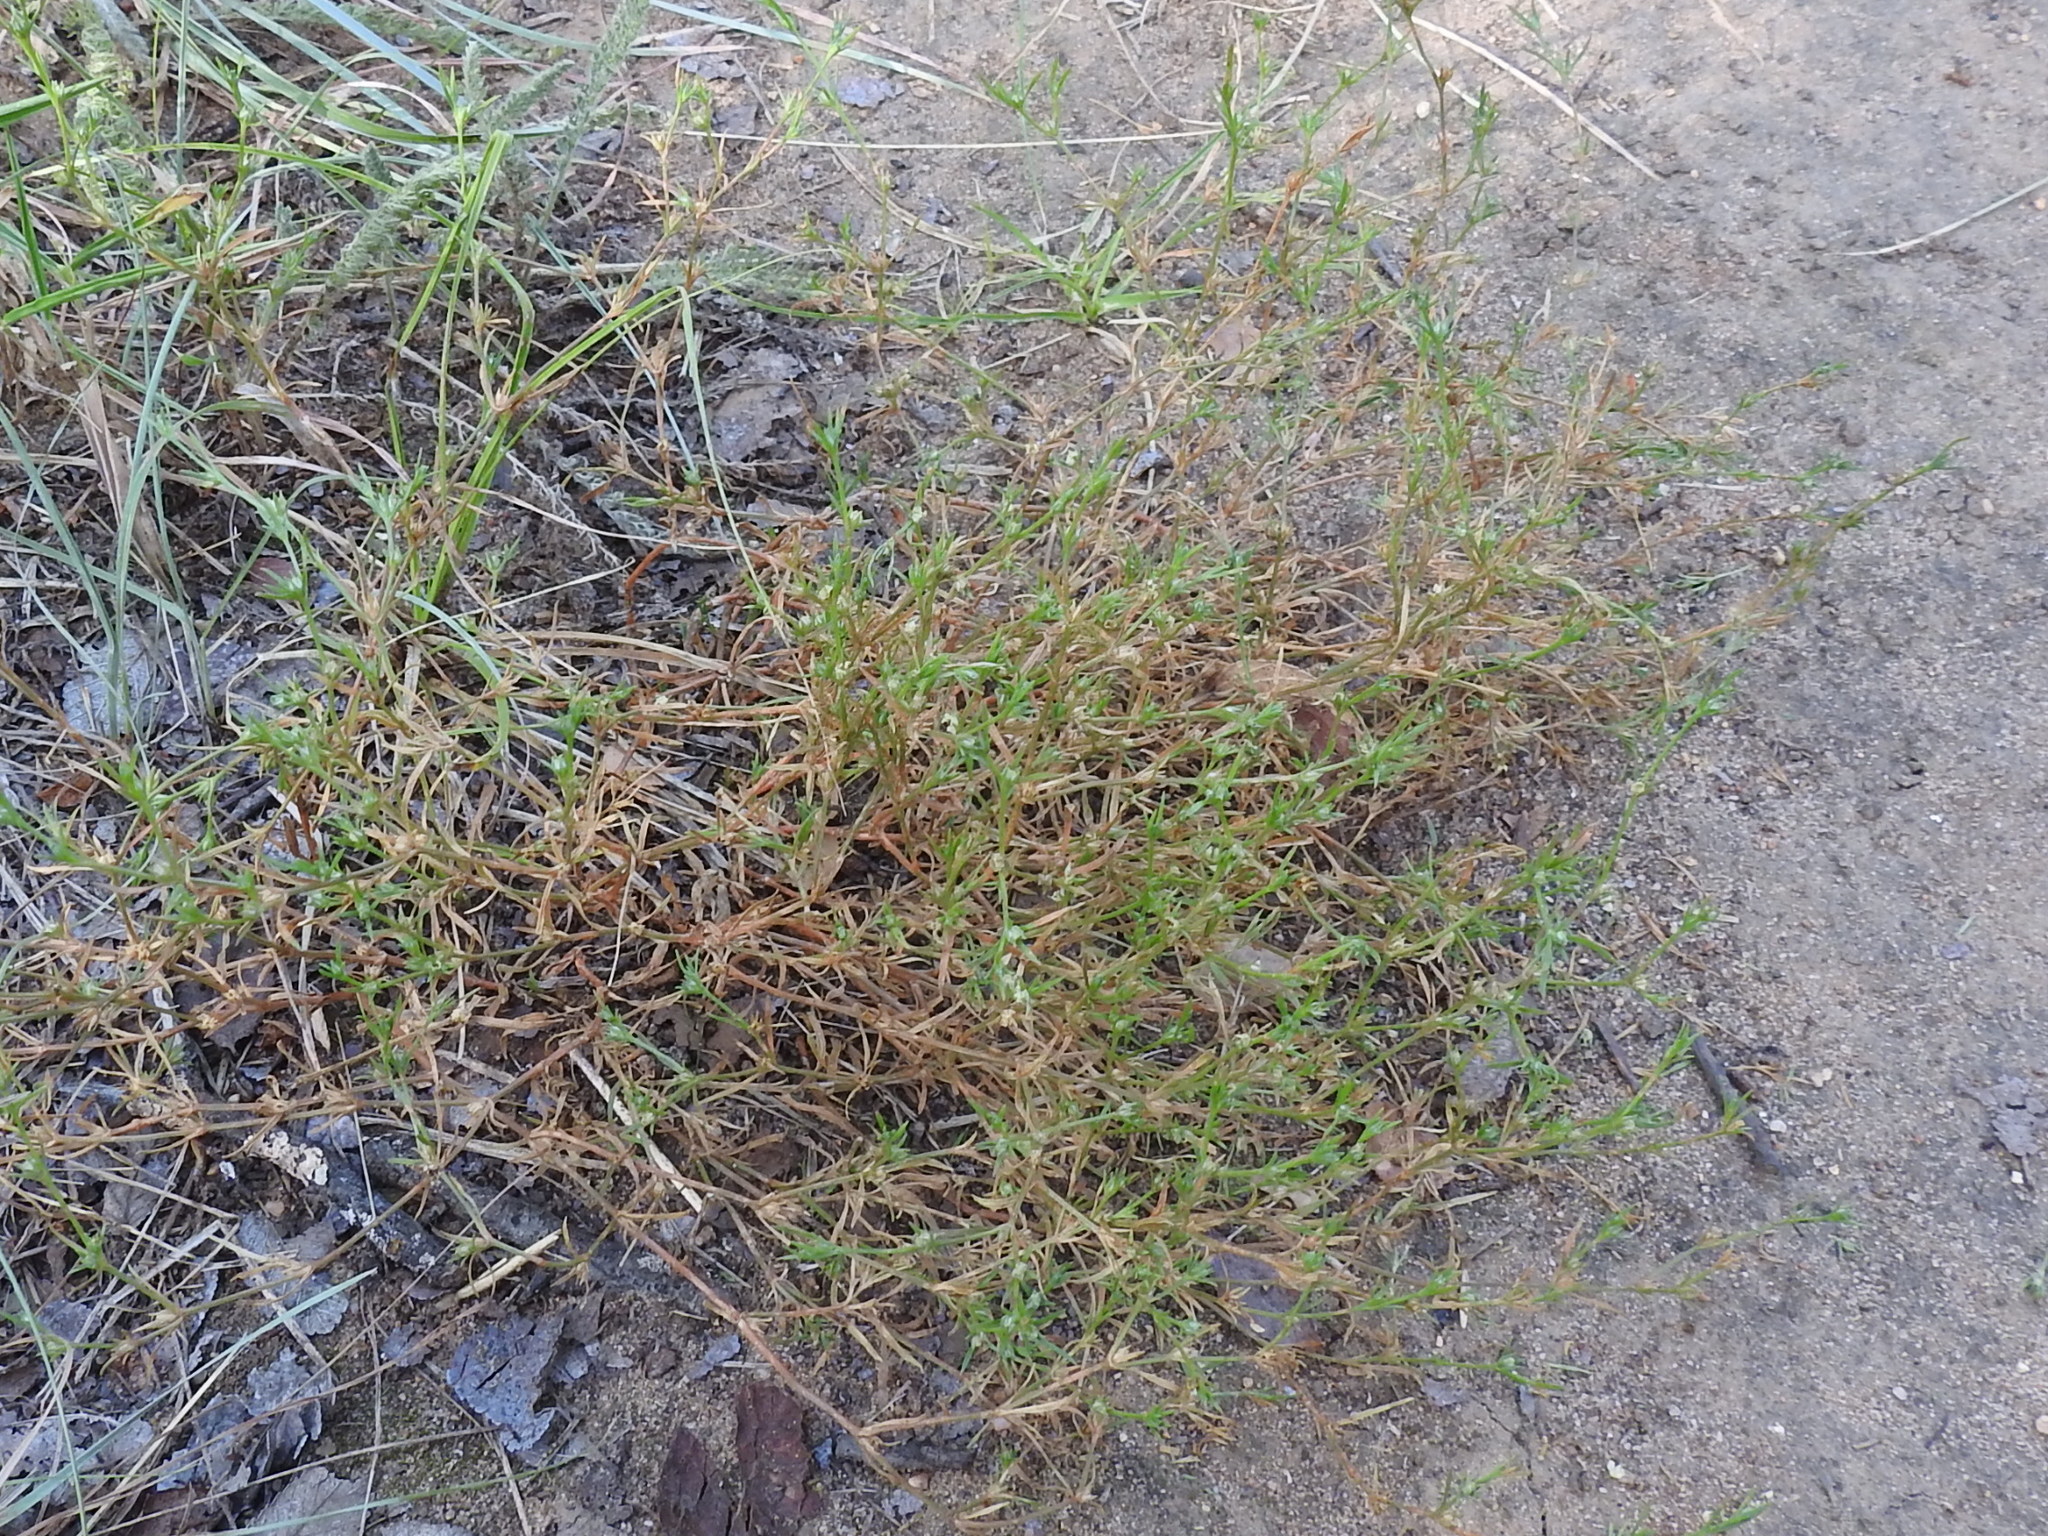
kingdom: Plantae
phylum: Tracheophyta
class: Magnoliopsida
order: Lamiales
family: Tetrachondraceae
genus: Polypremum
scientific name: Polypremum procumbens
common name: Juniper-leaf
